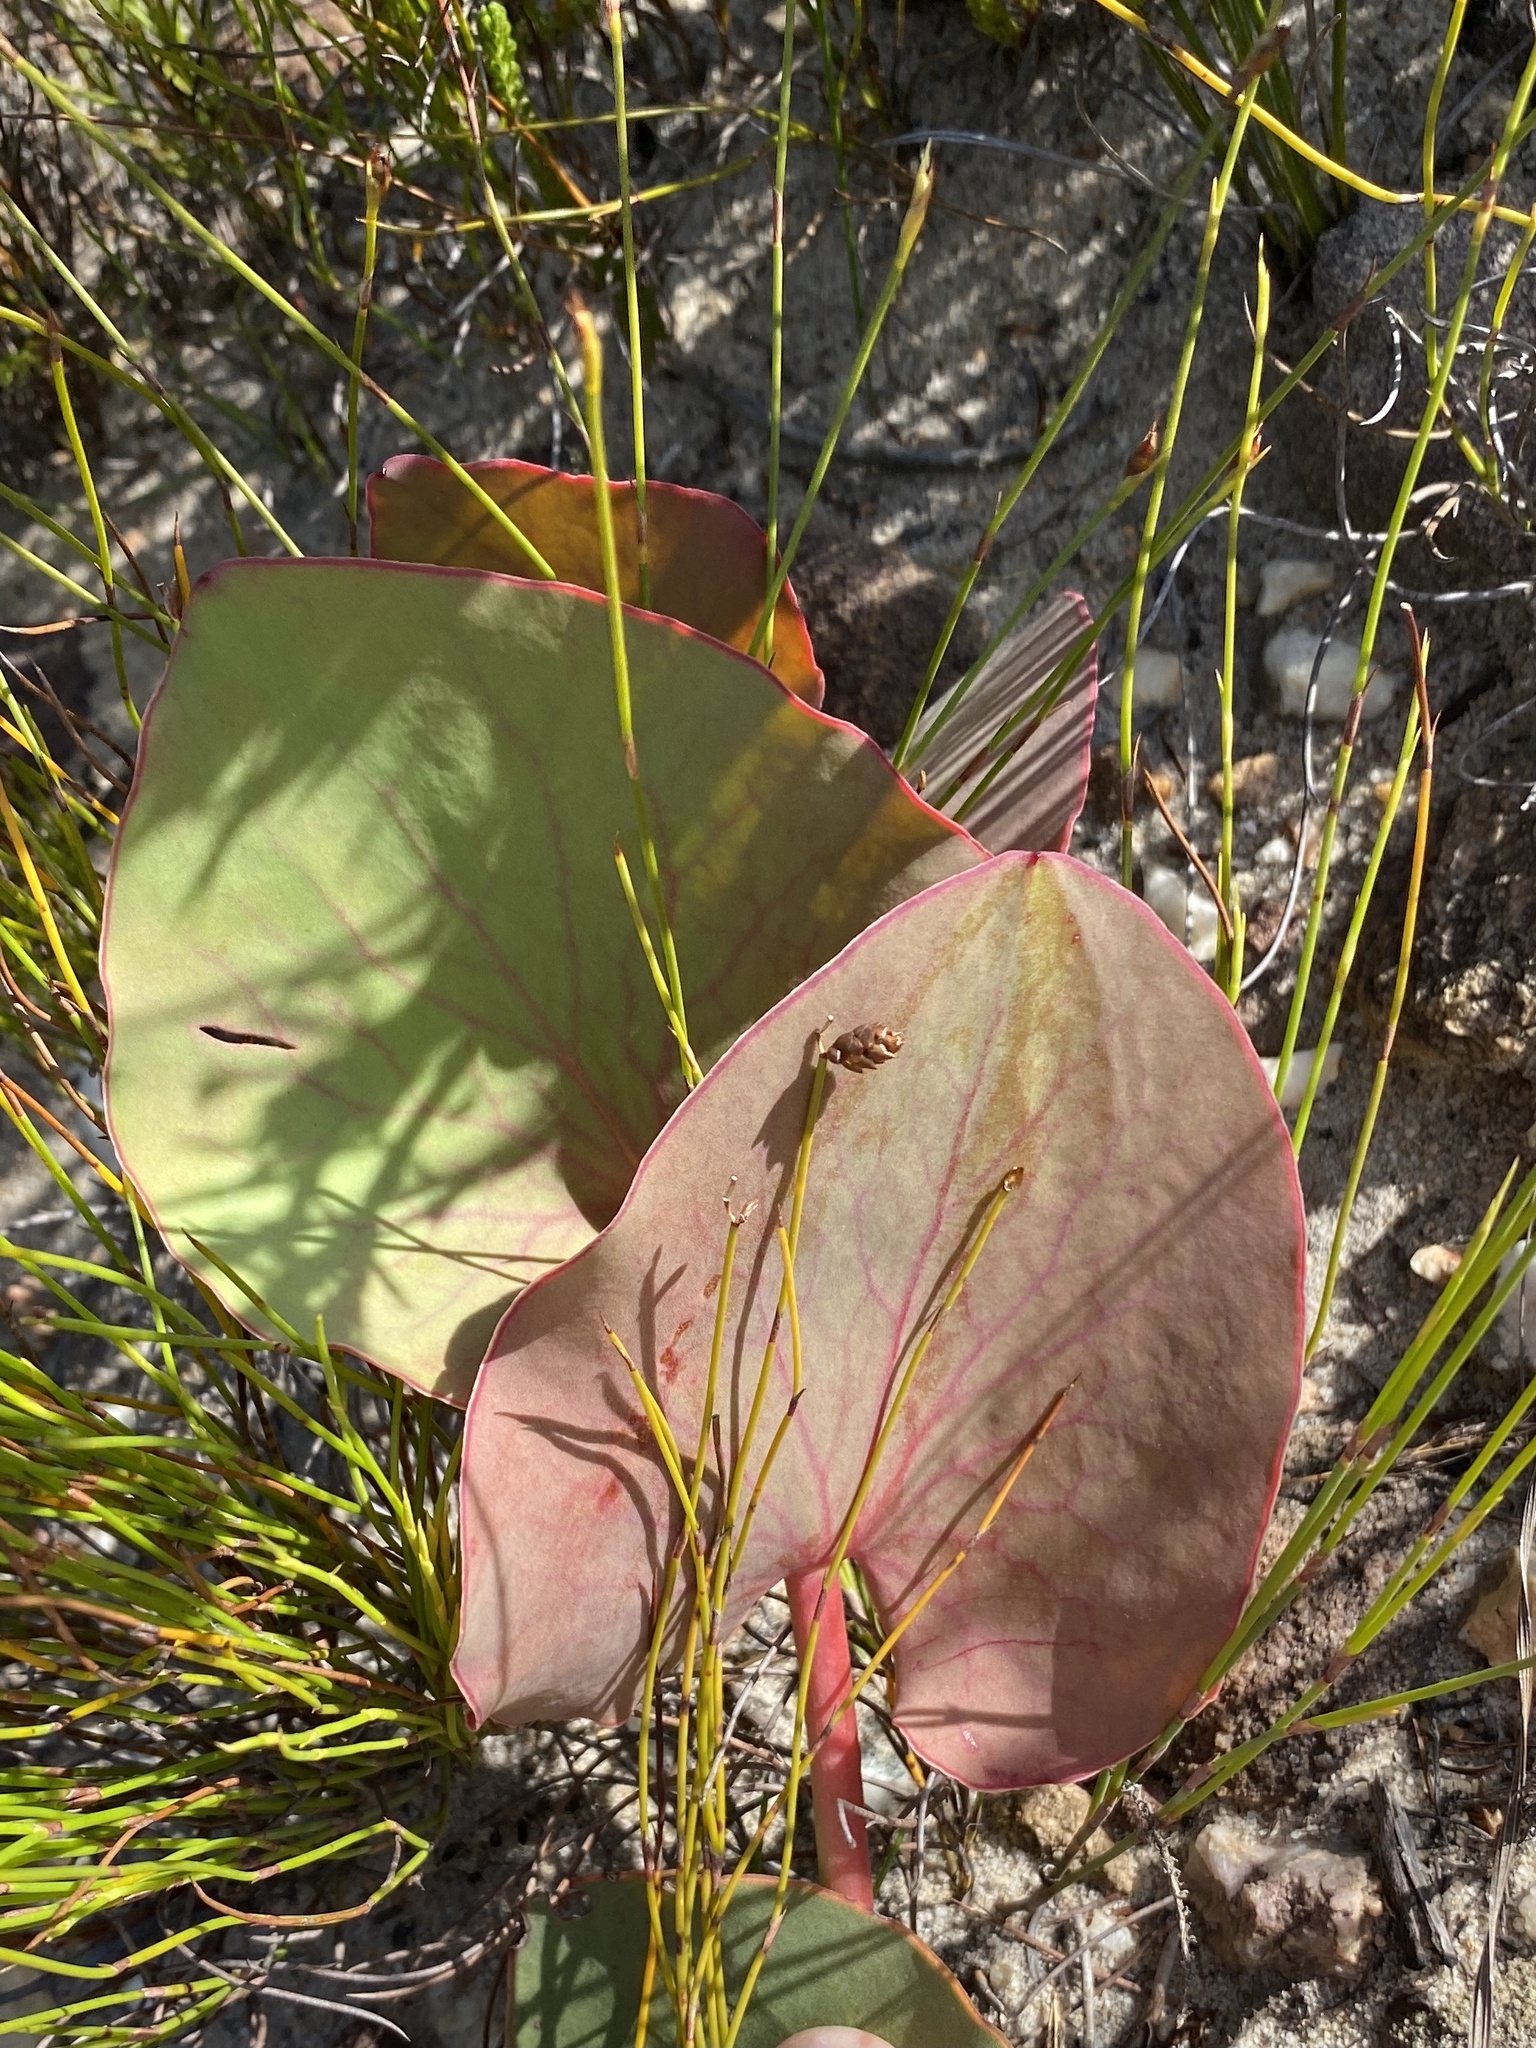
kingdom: Plantae
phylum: Tracheophyta
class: Magnoliopsida
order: Proteales
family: Proteaceae
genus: Protea
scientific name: Protea cordata
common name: Heart-leaf sugarbush
